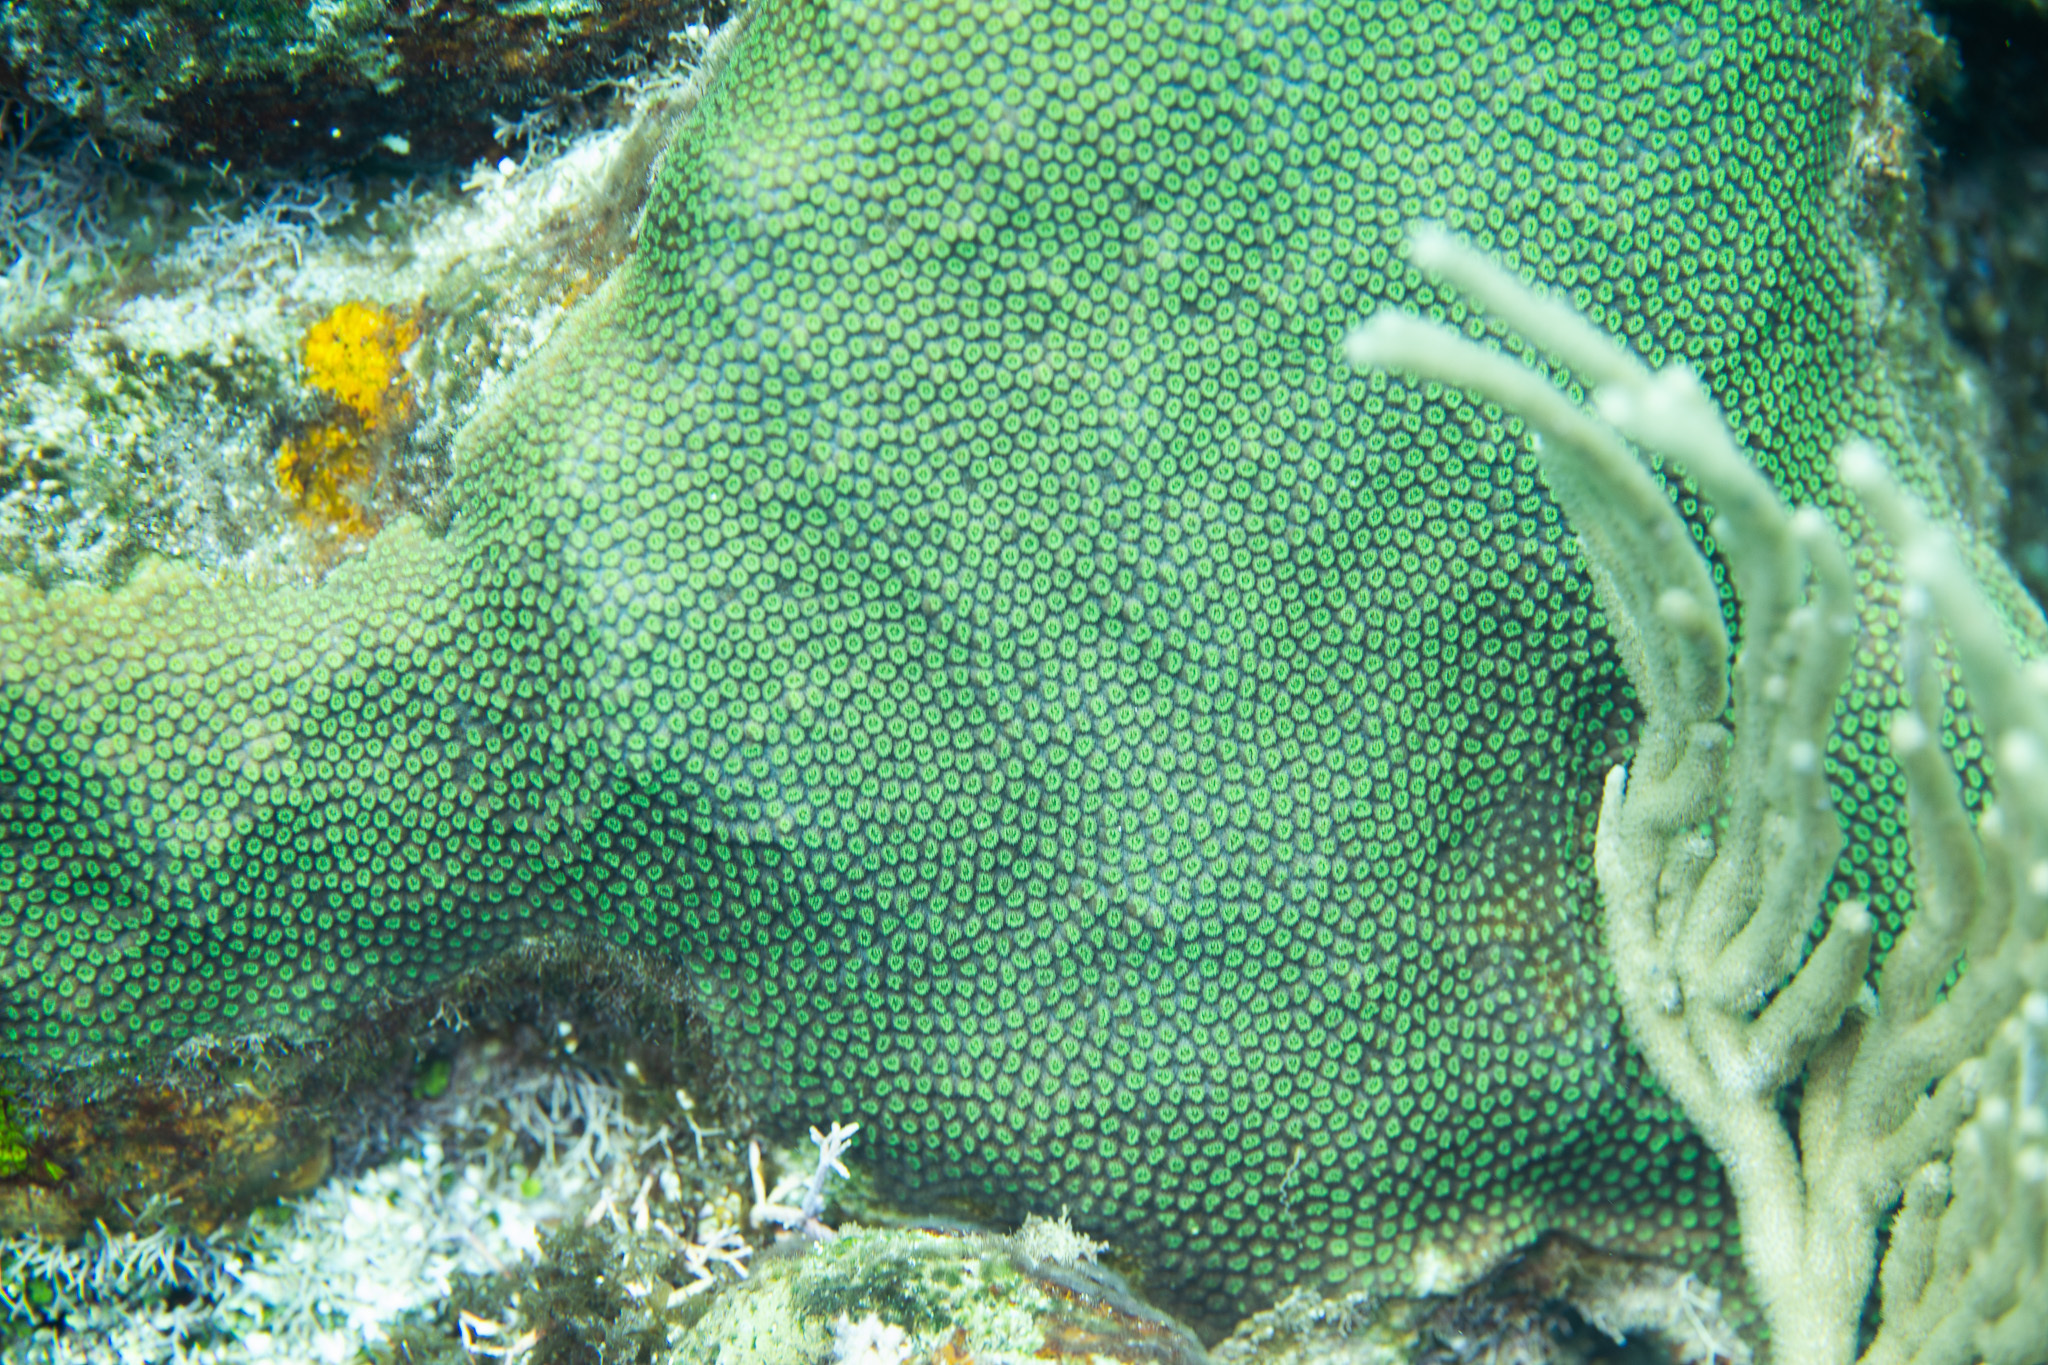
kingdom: Animalia
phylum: Cnidaria
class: Anthozoa
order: Scleractinia
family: Merulinidae
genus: Orbicella
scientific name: Orbicella faveolata
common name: Mountainous star coral
